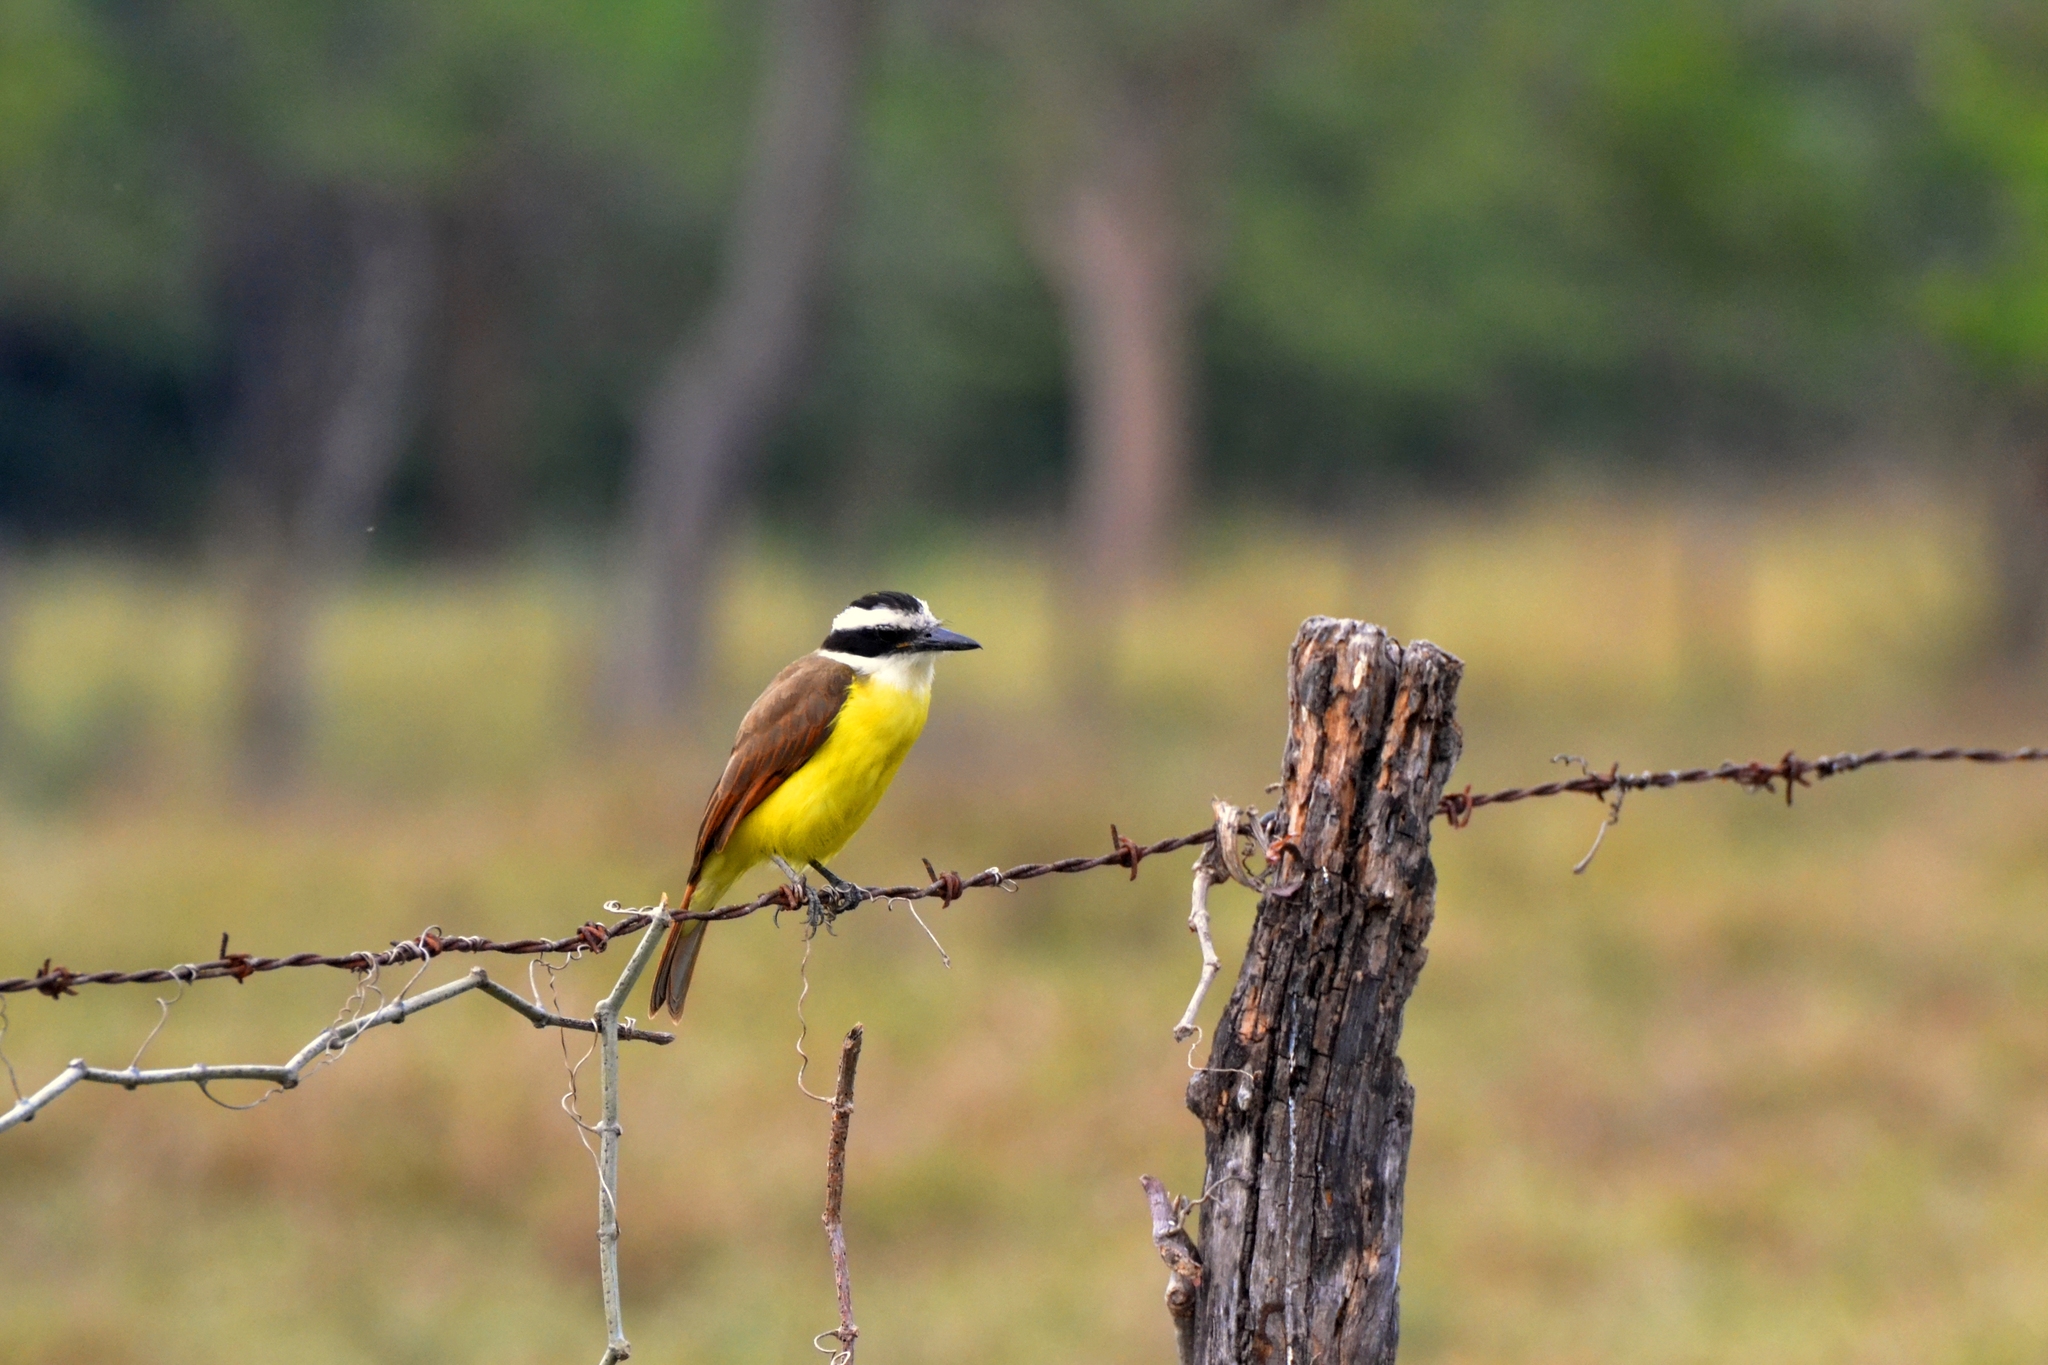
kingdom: Animalia
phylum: Chordata
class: Aves
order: Passeriformes
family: Tyrannidae
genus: Pitangus
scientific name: Pitangus sulphuratus
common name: Great kiskadee
